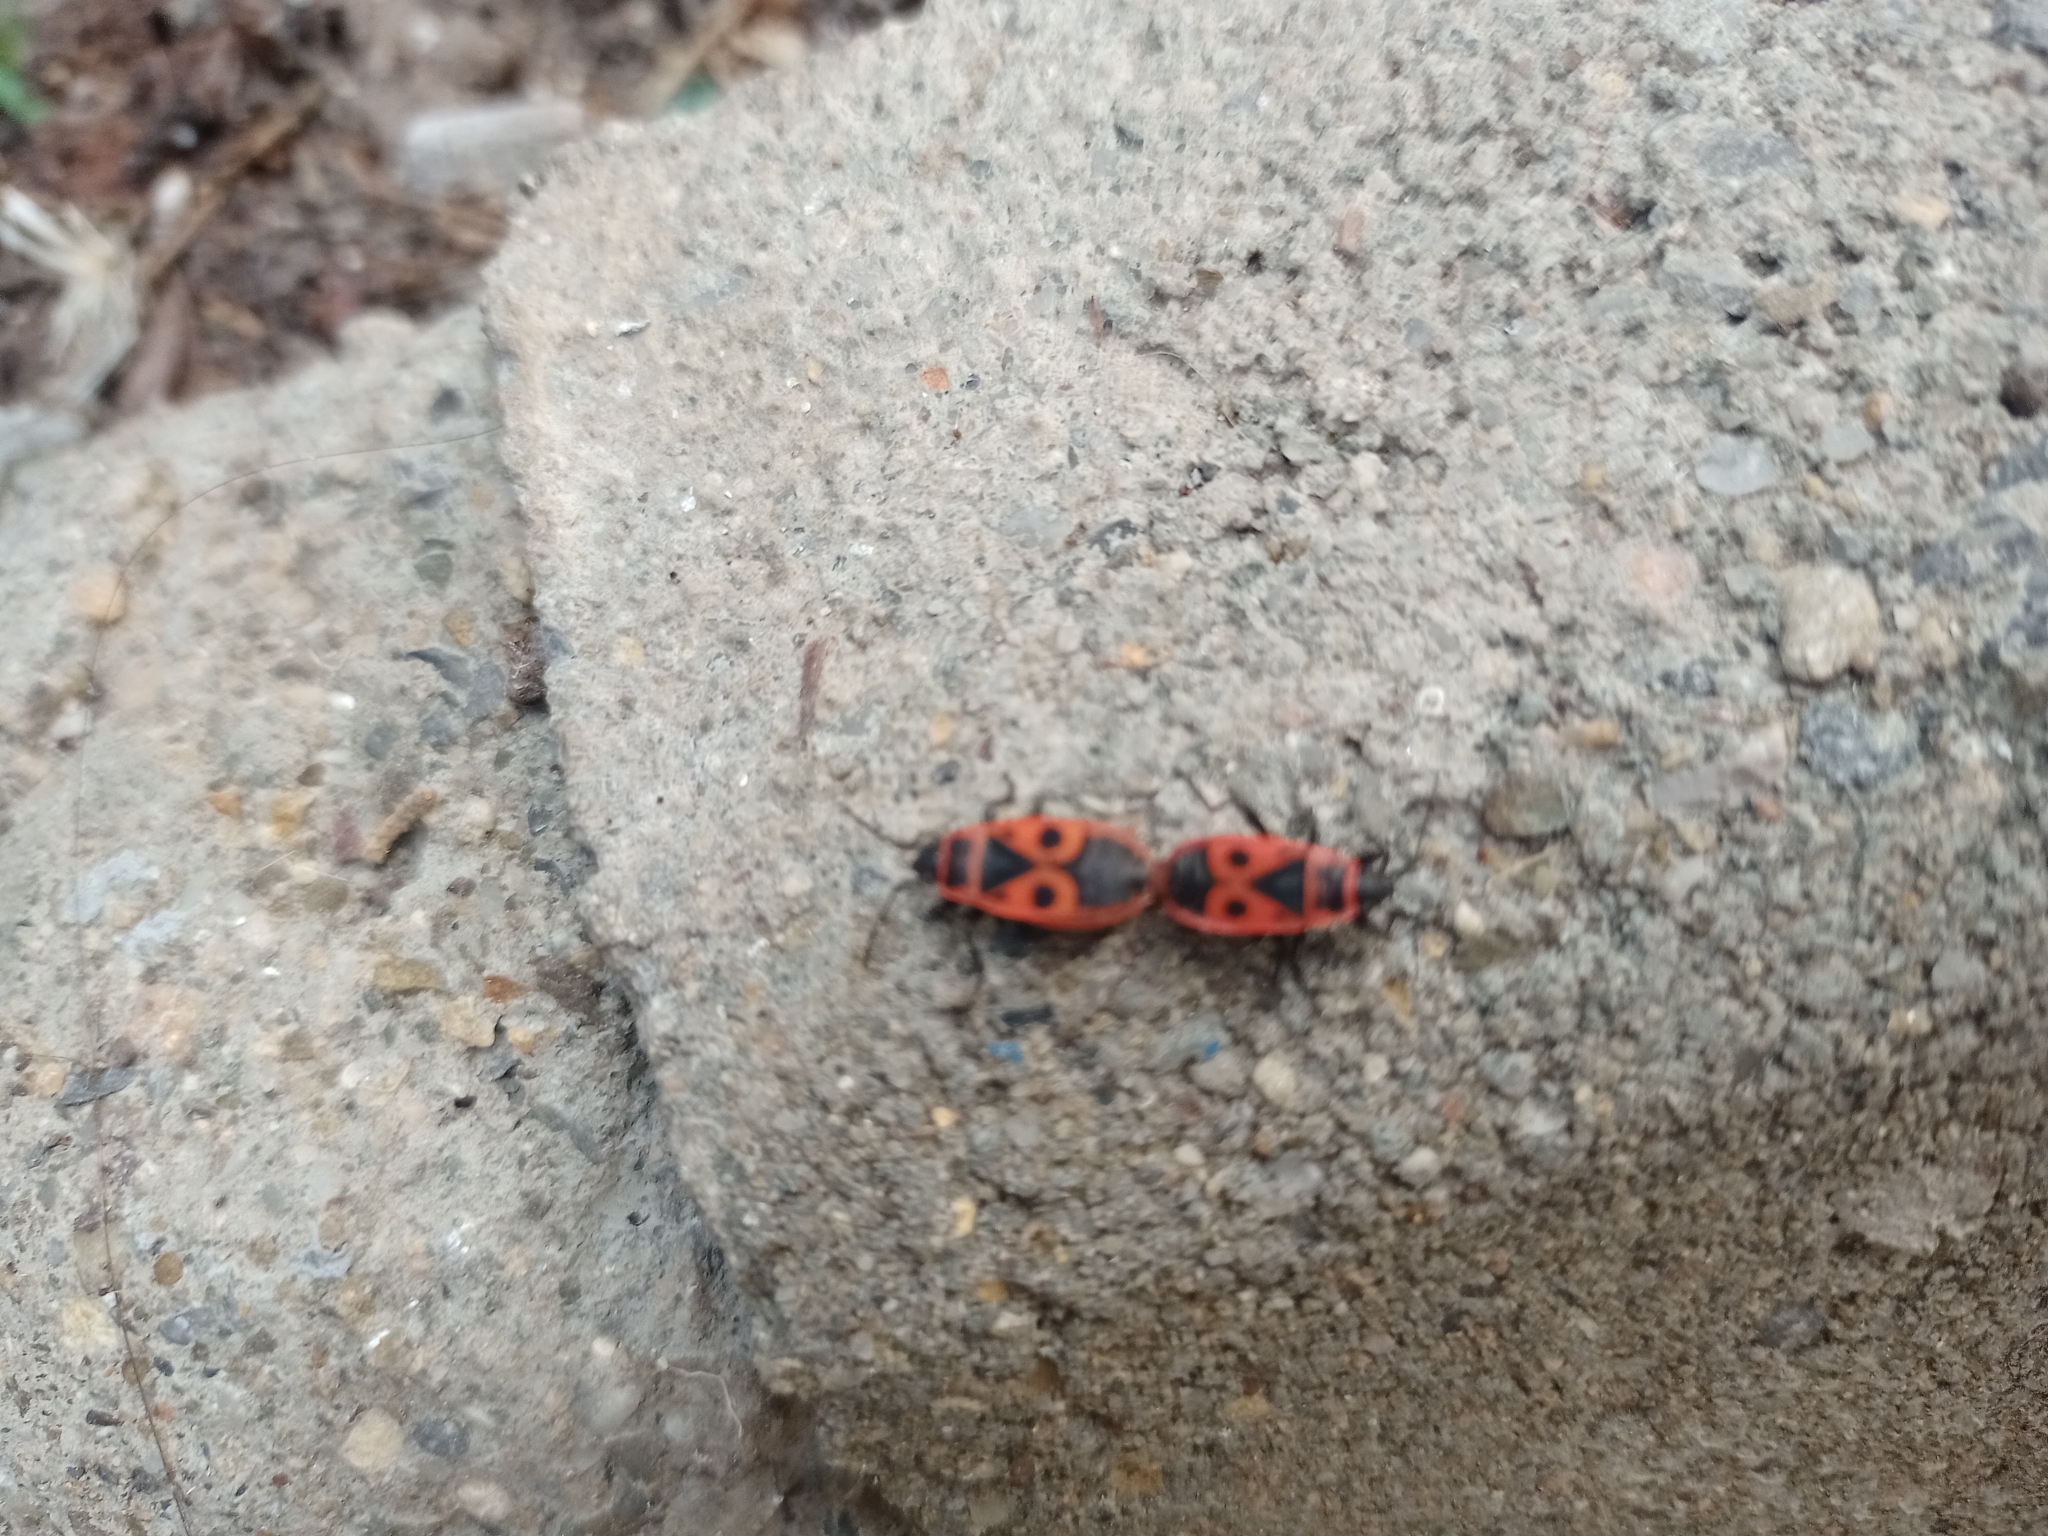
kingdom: Animalia
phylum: Arthropoda
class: Insecta
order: Hemiptera
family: Pyrrhocoridae
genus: Pyrrhocoris
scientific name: Pyrrhocoris apterus
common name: Firebug
